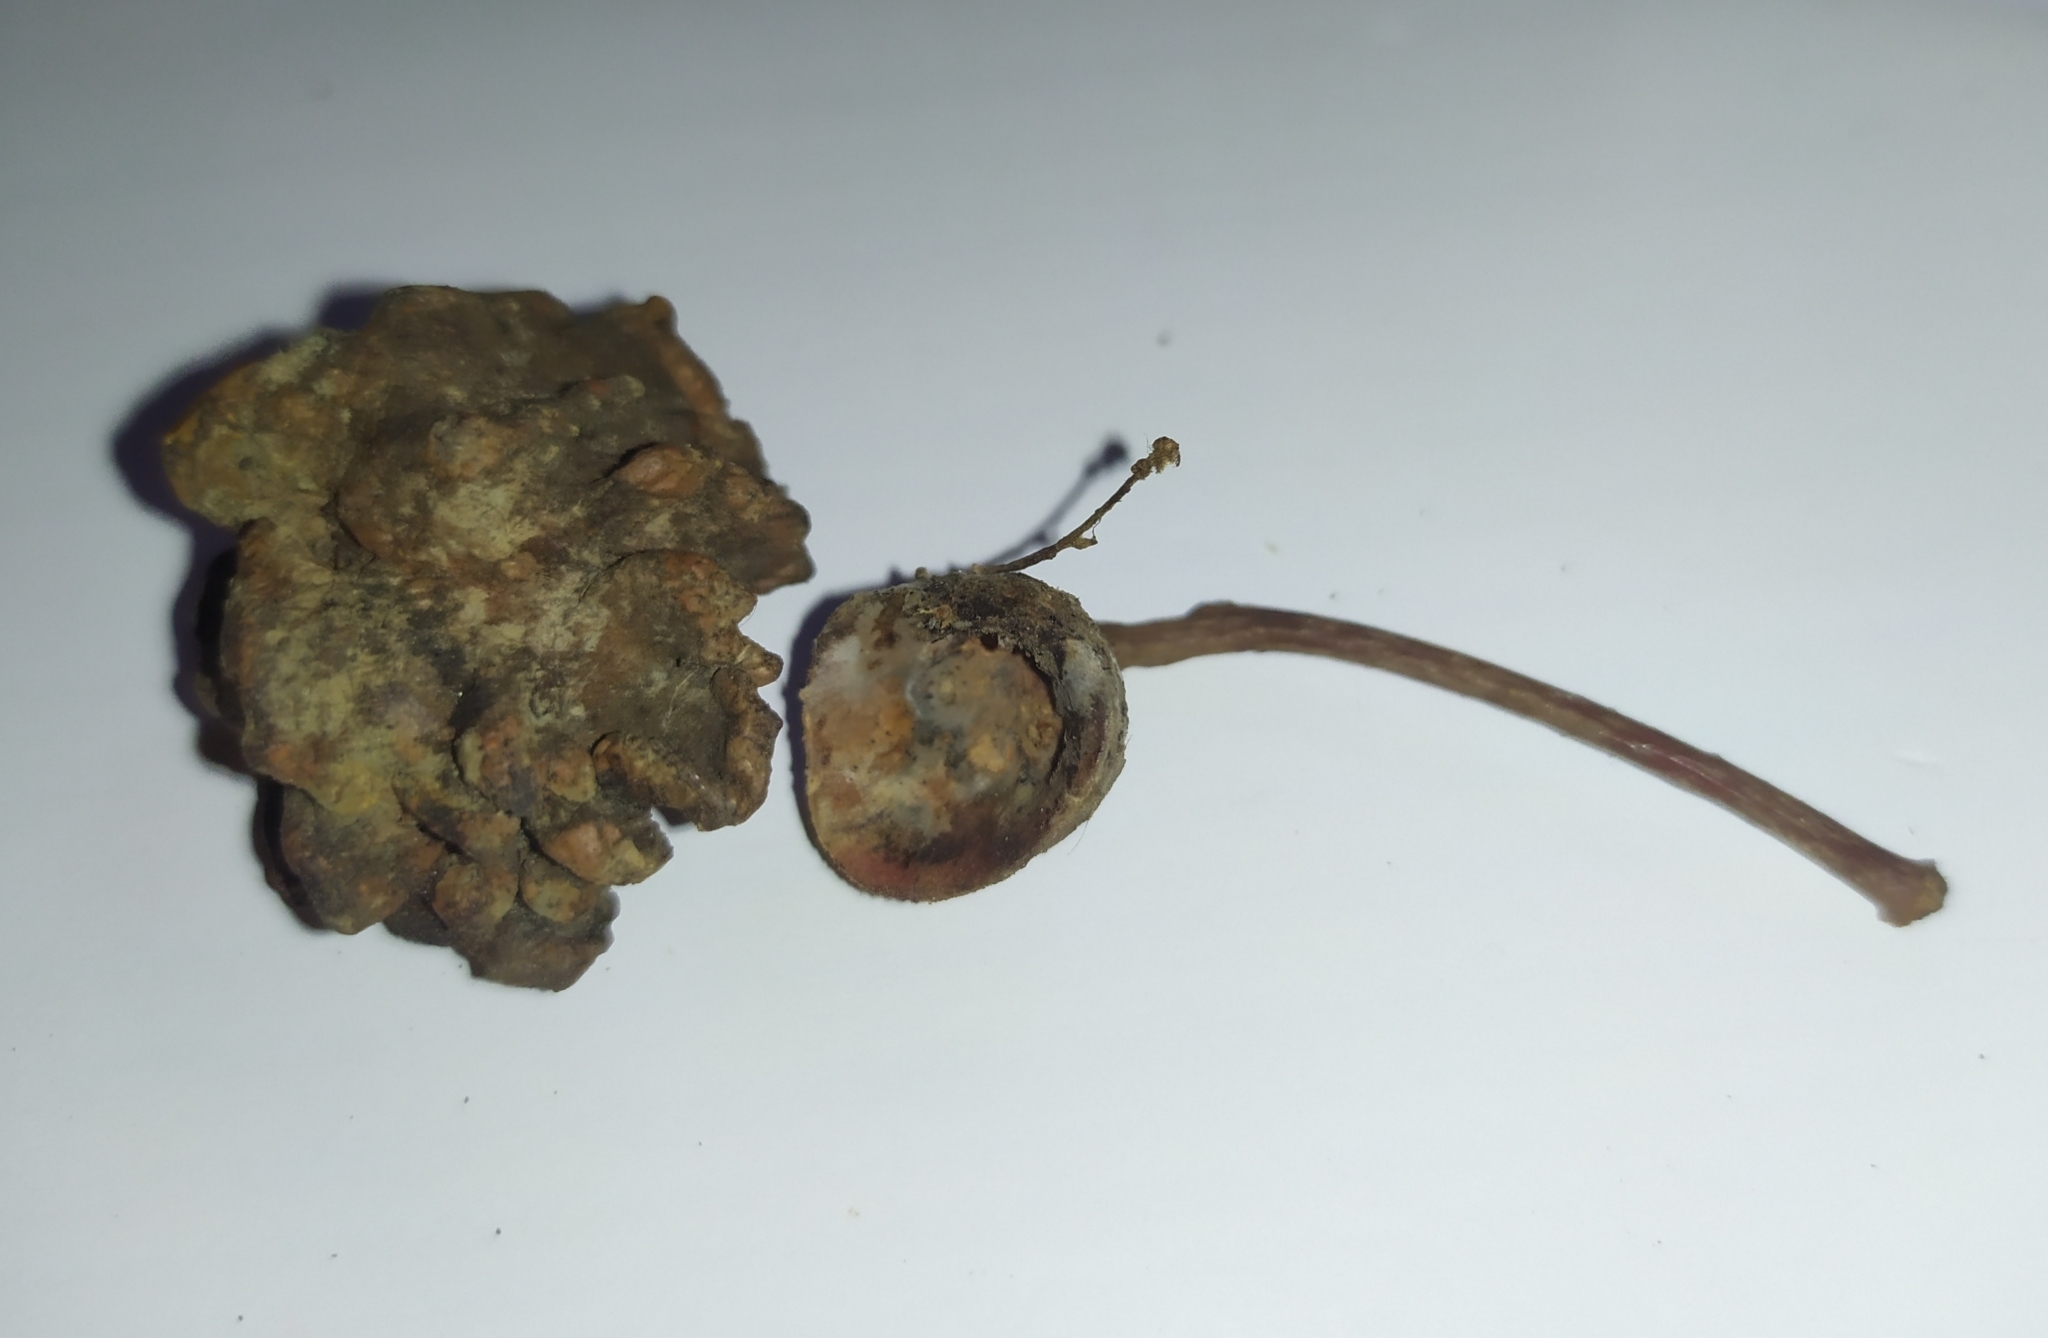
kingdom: Animalia
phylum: Arthropoda
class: Insecta
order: Hymenoptera
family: Cynipidae
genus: Neuroterus
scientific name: Neuroterus quercusbaccarum
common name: Common spangle gall
